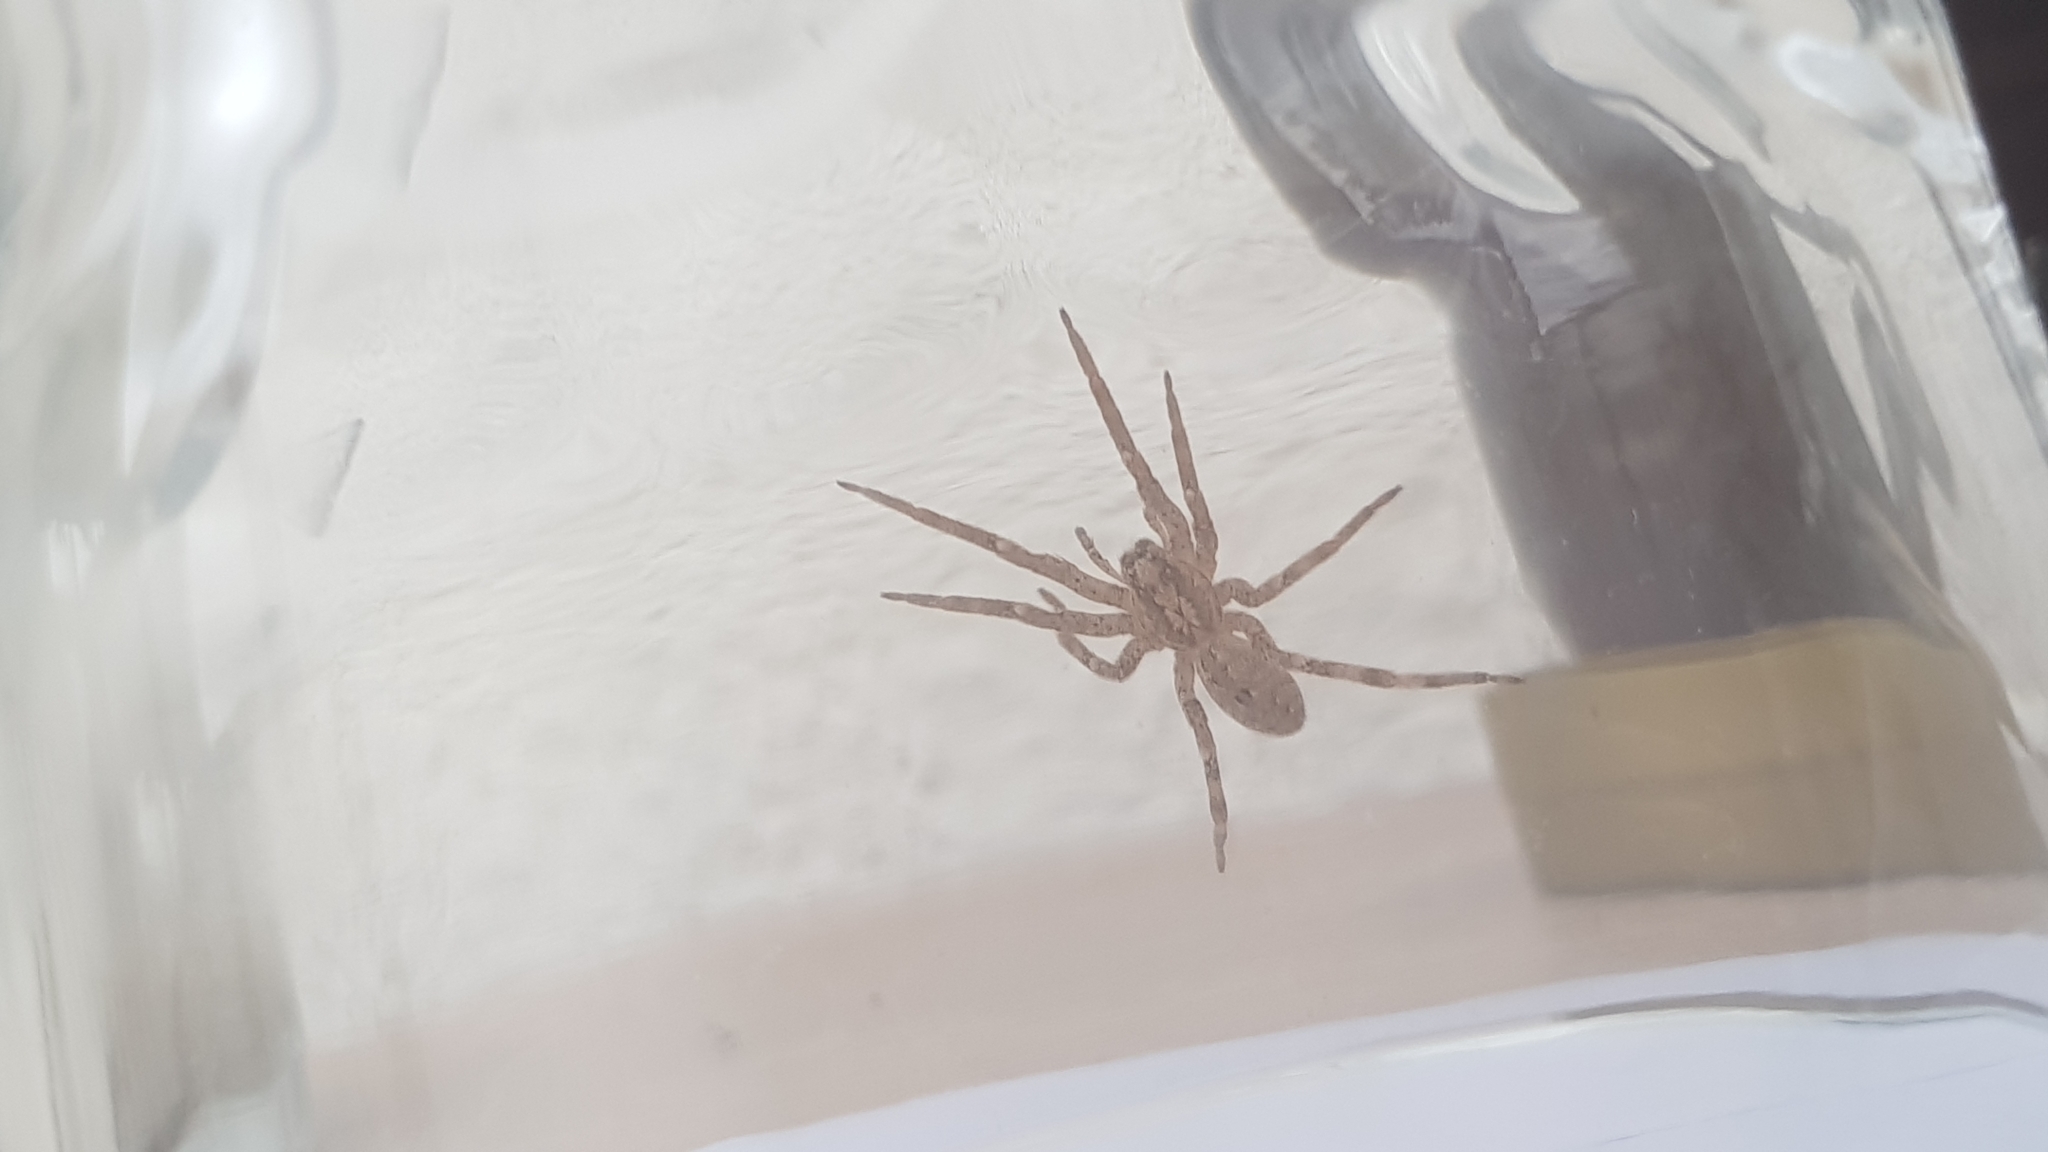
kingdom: Animalia
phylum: Arthropoda
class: Arachnida
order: Araneae
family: Zoropsidae
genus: Zoropsis
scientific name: Zoropsis spinimana
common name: Zoropsid spider
